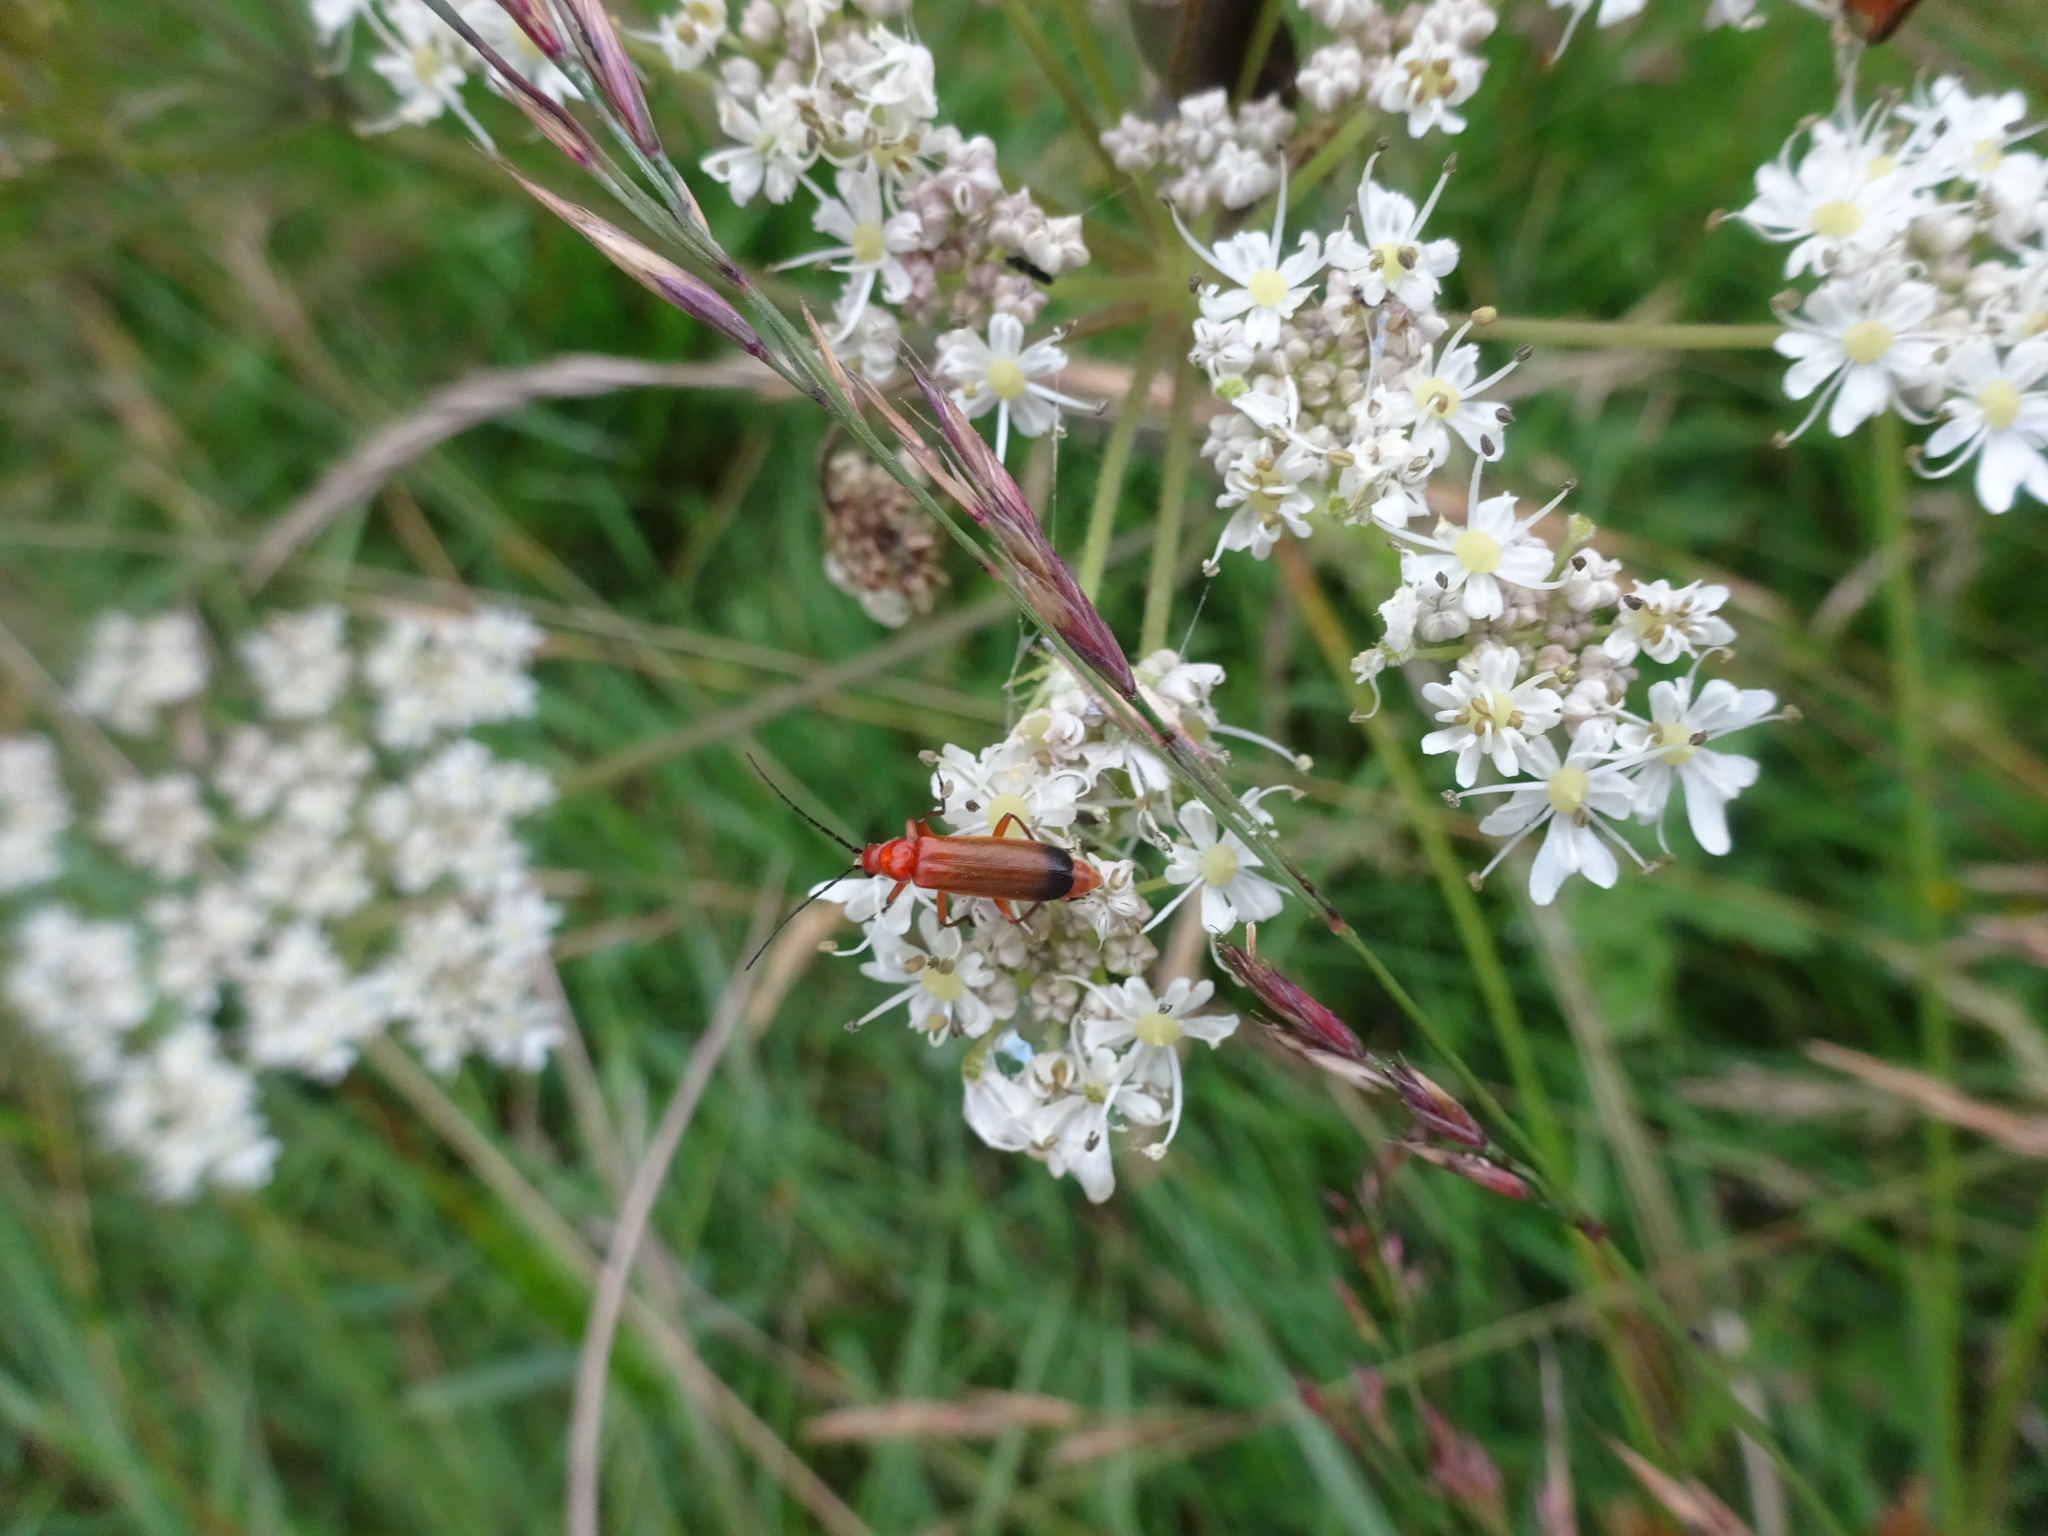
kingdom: Animalia
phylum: Arthropoda
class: Insecta
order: Coleoptera
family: Cantharidae
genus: Rhagonycha
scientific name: Rhagonycha fulva
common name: Common red soldier beetle
